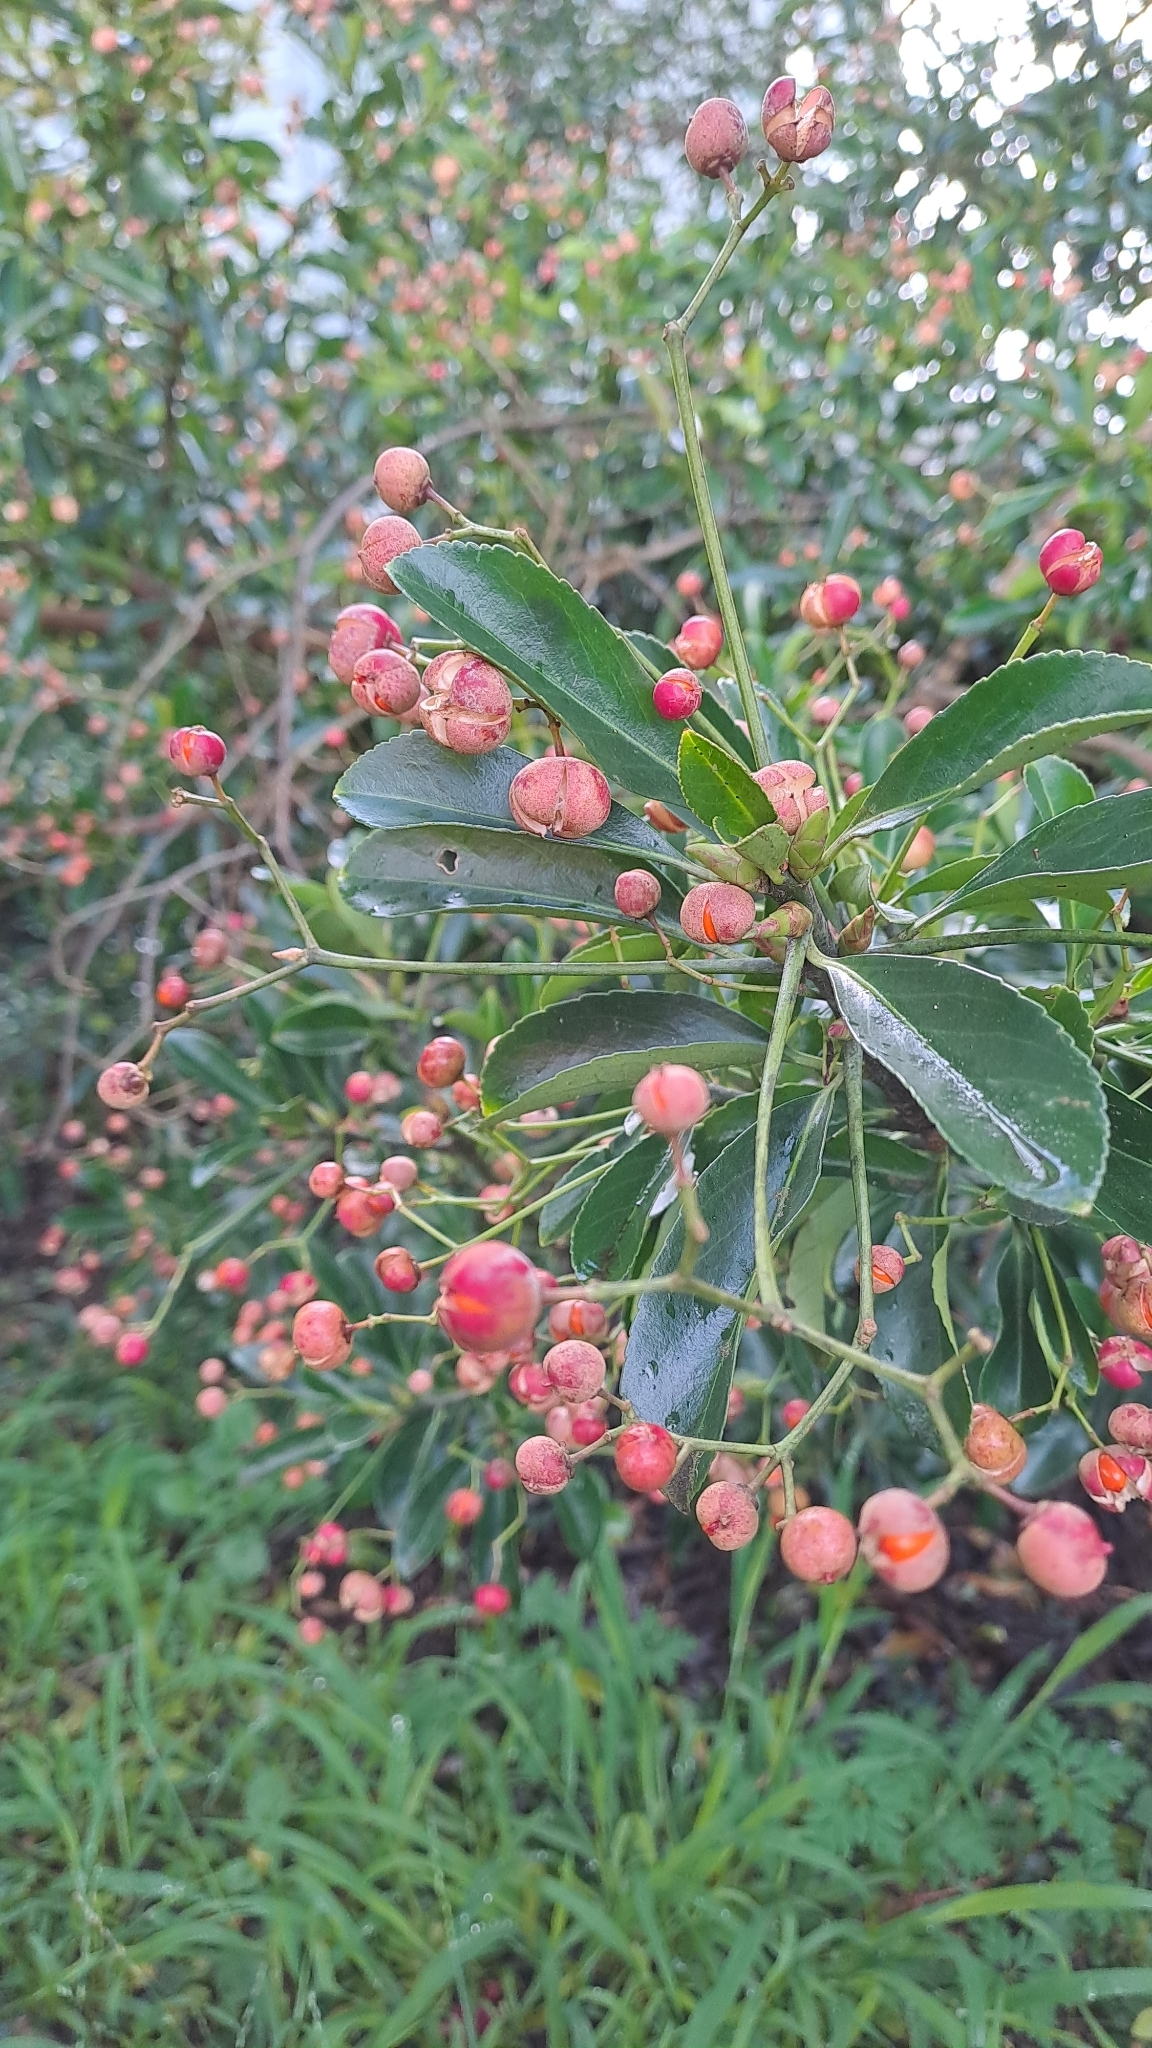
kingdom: Plantae
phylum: Tracheophyta
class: Magnoliopsida
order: Celastrales
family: Celastraceae
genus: Euonymus
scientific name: Euonymus japonicus
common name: Japanese spindletree
